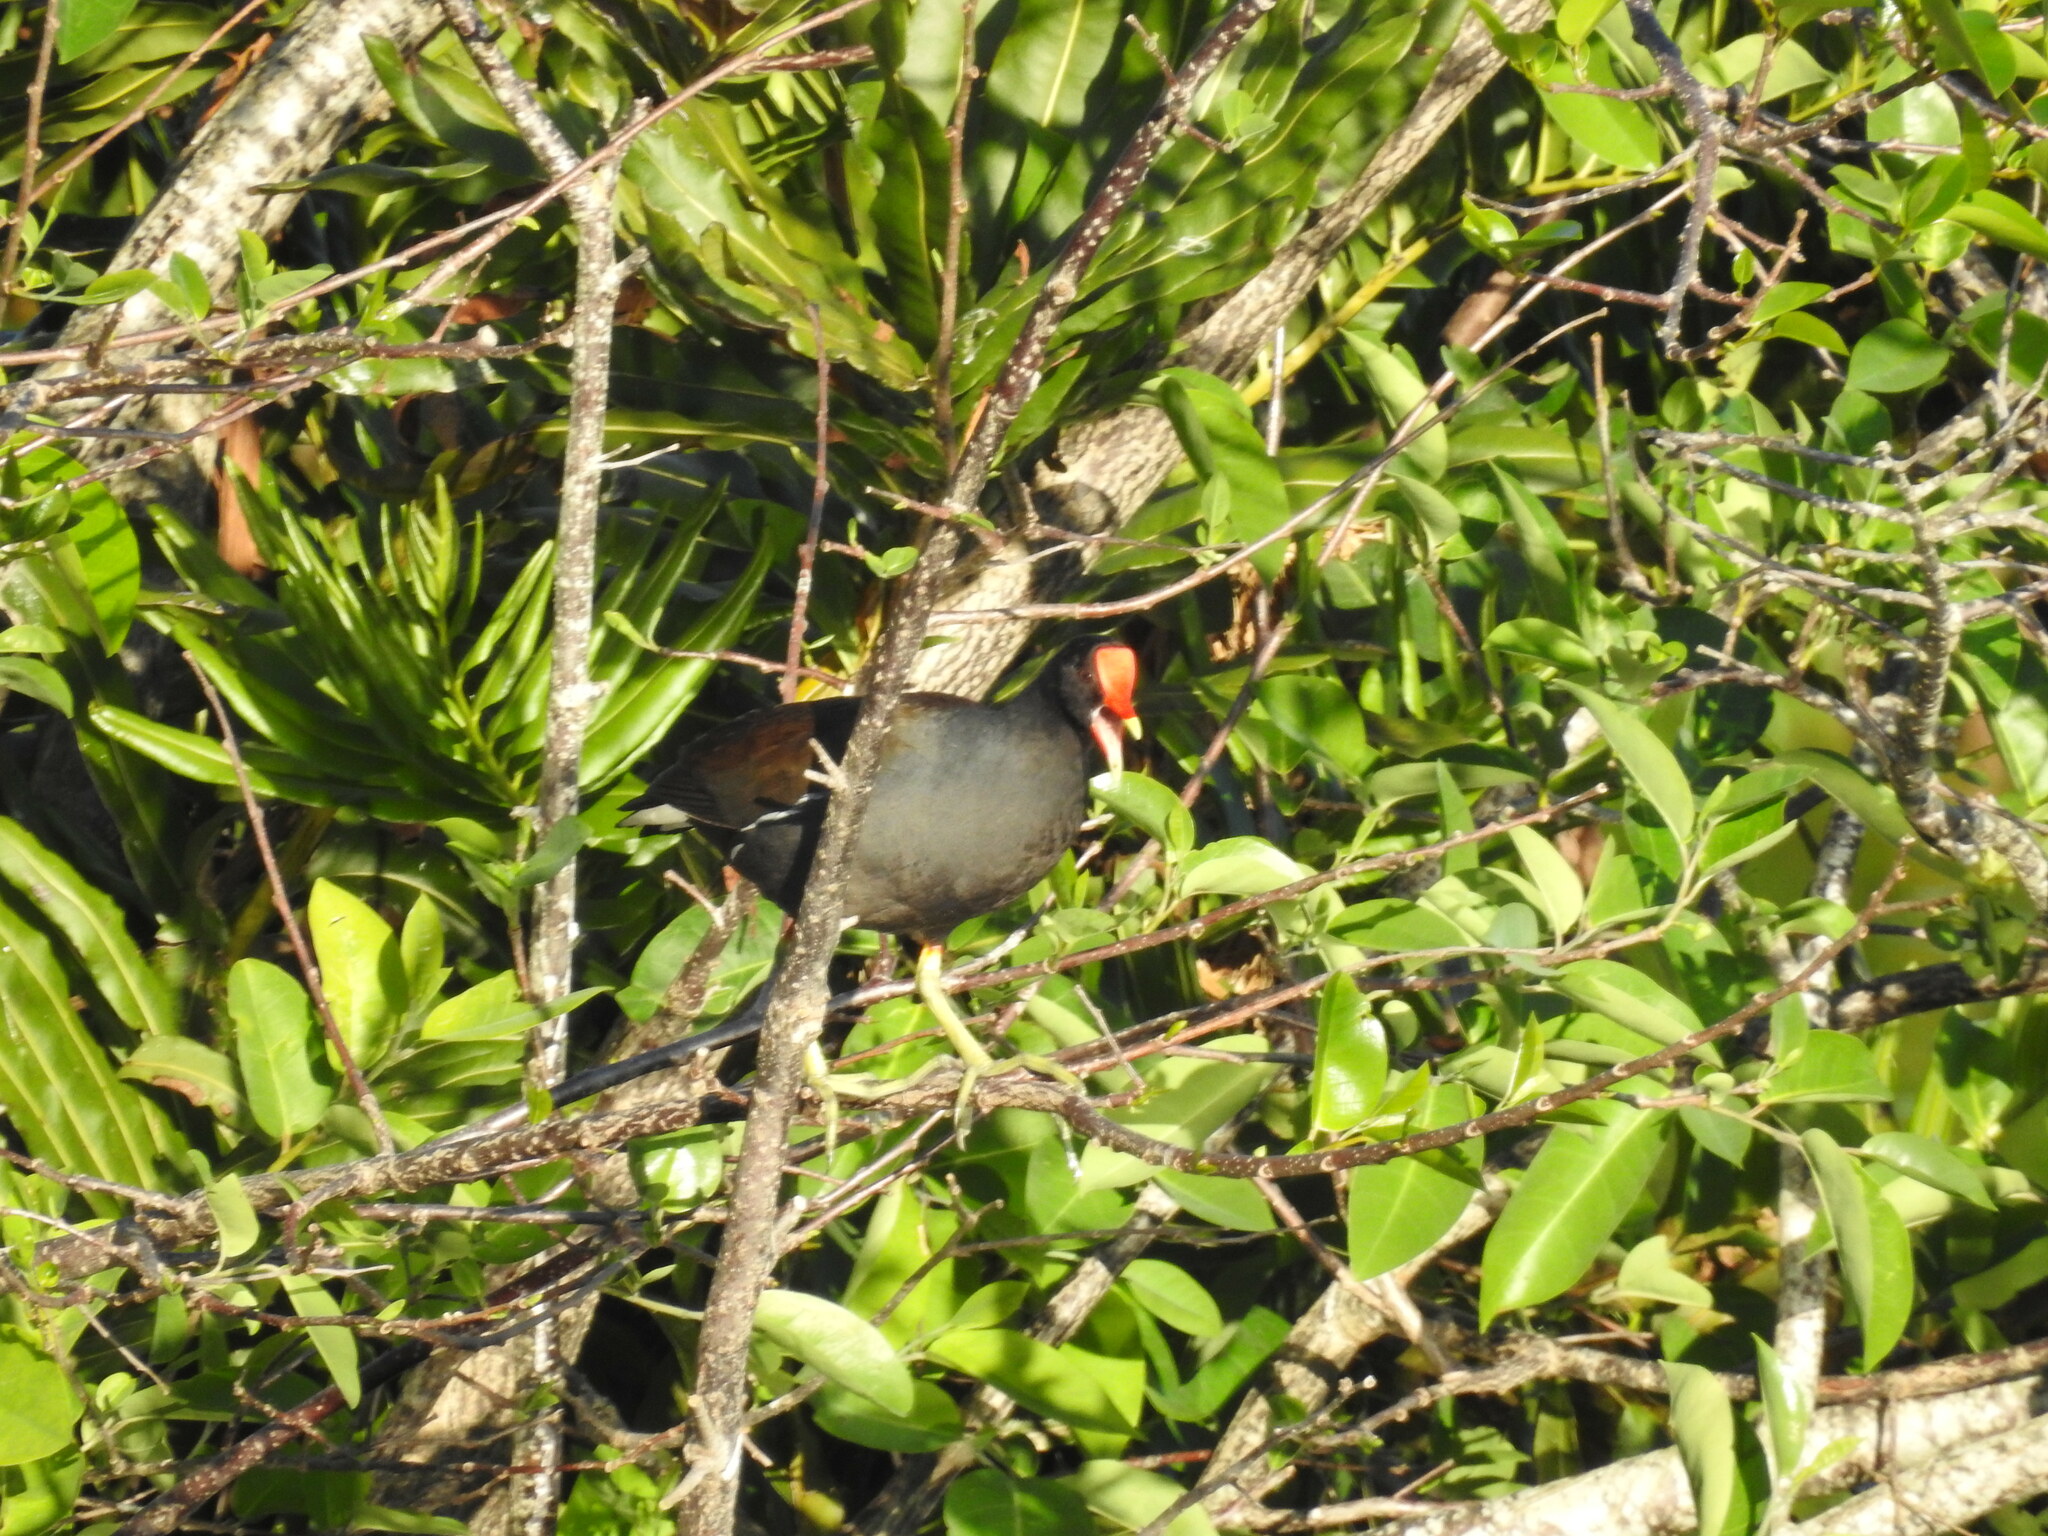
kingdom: Animalia
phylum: Chordata
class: Aves
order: Gruiformes
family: Rallidae
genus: Gallinula
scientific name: Gallinula chloropus
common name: Common moorhen
